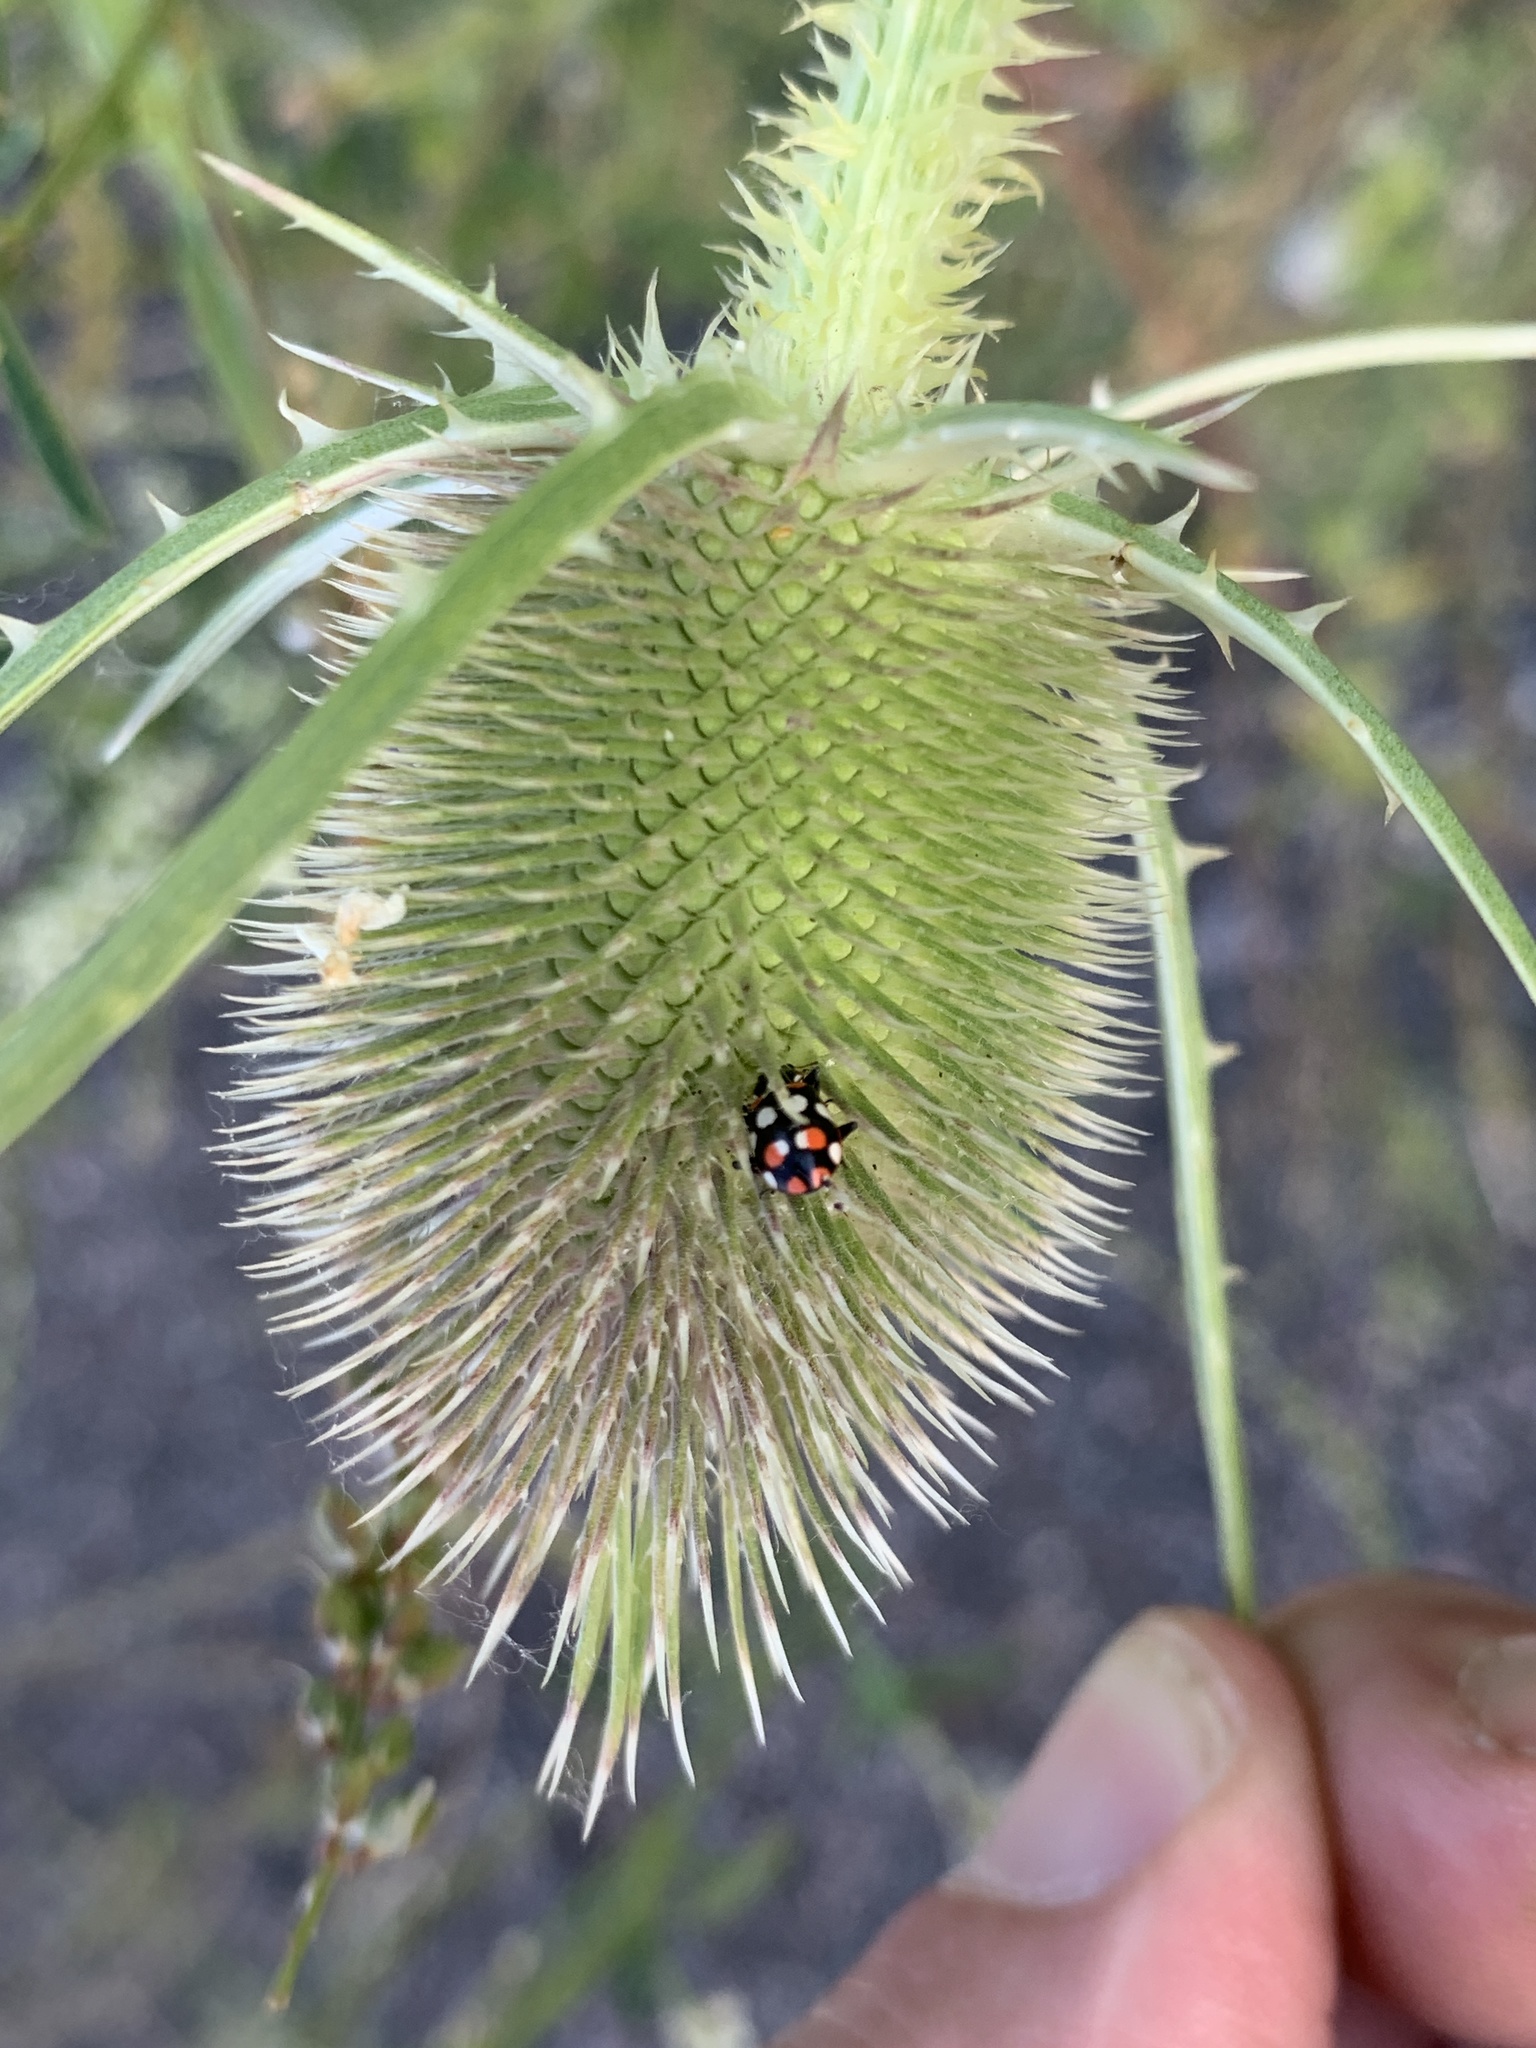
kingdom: Animalia
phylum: Arthropoda
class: Insecta
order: Coleoptera
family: Coccinellidae
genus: Eriopis
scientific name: Eriopis connexa
